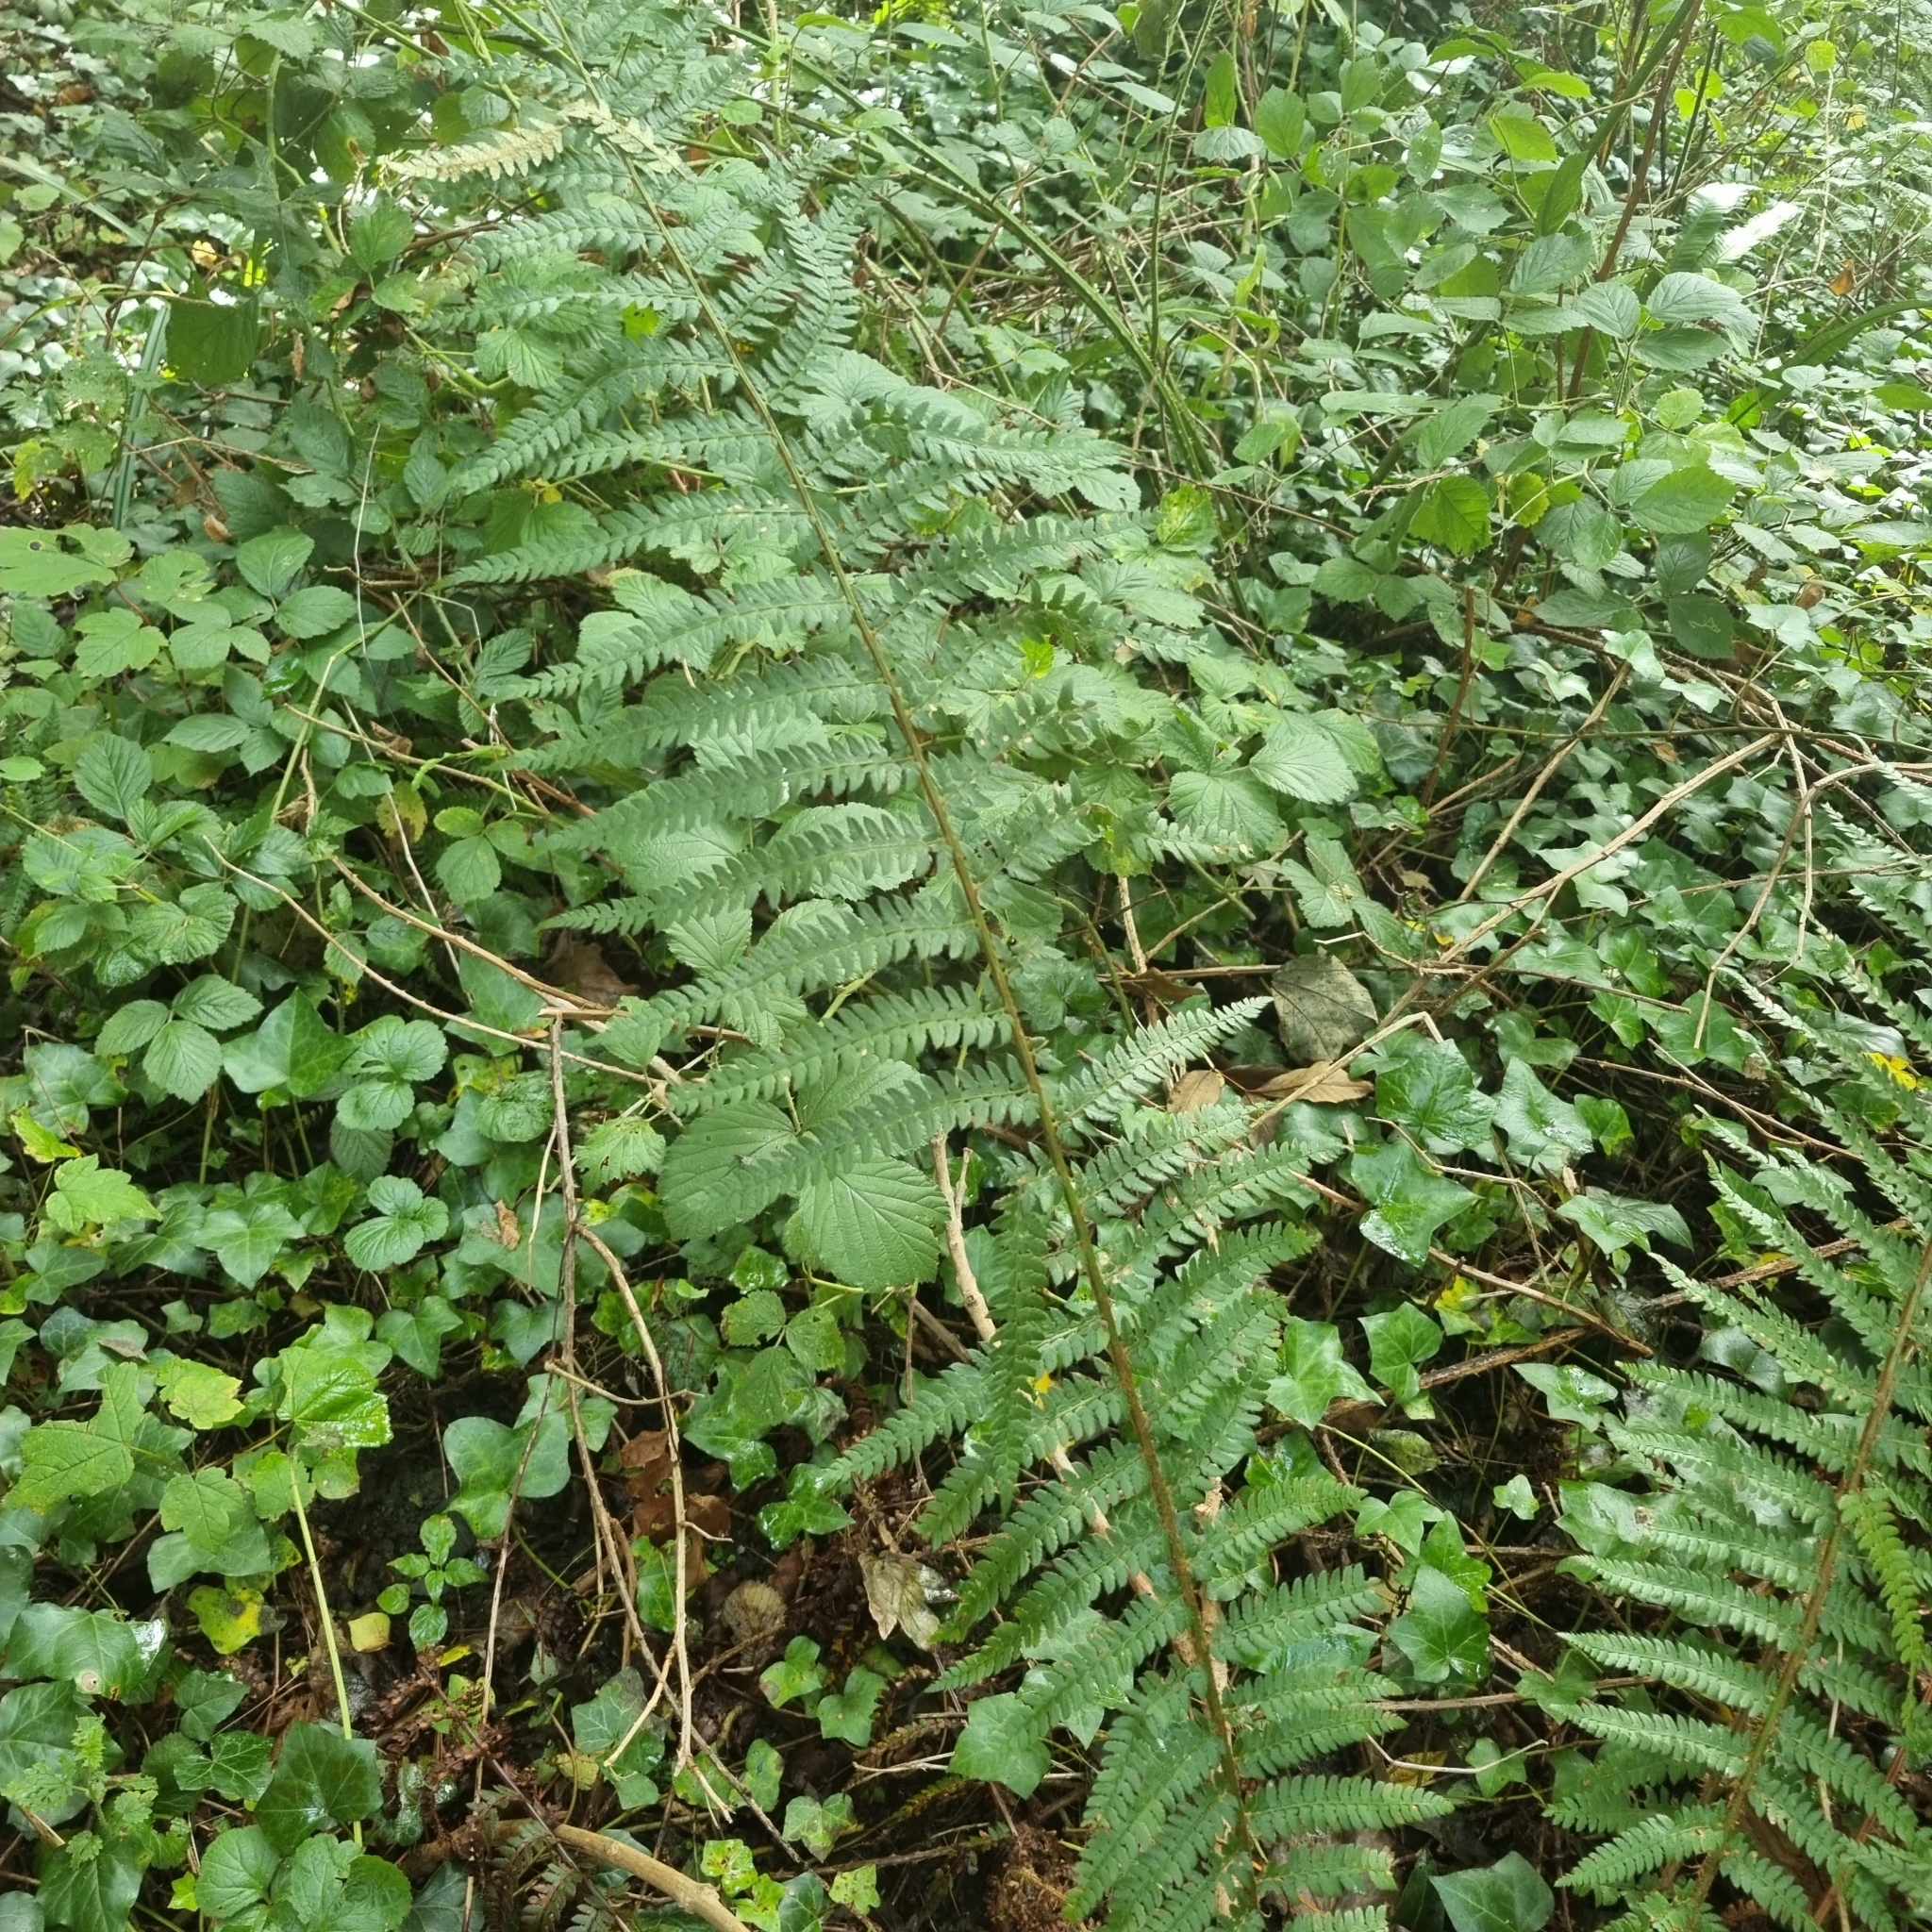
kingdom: Plantae
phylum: Tracheophyta
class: Polypodiopsida
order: Polypodiales
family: Dryopteridaceae
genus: Polystichum
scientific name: Polystichum setiferum
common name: Soft shield-fern
